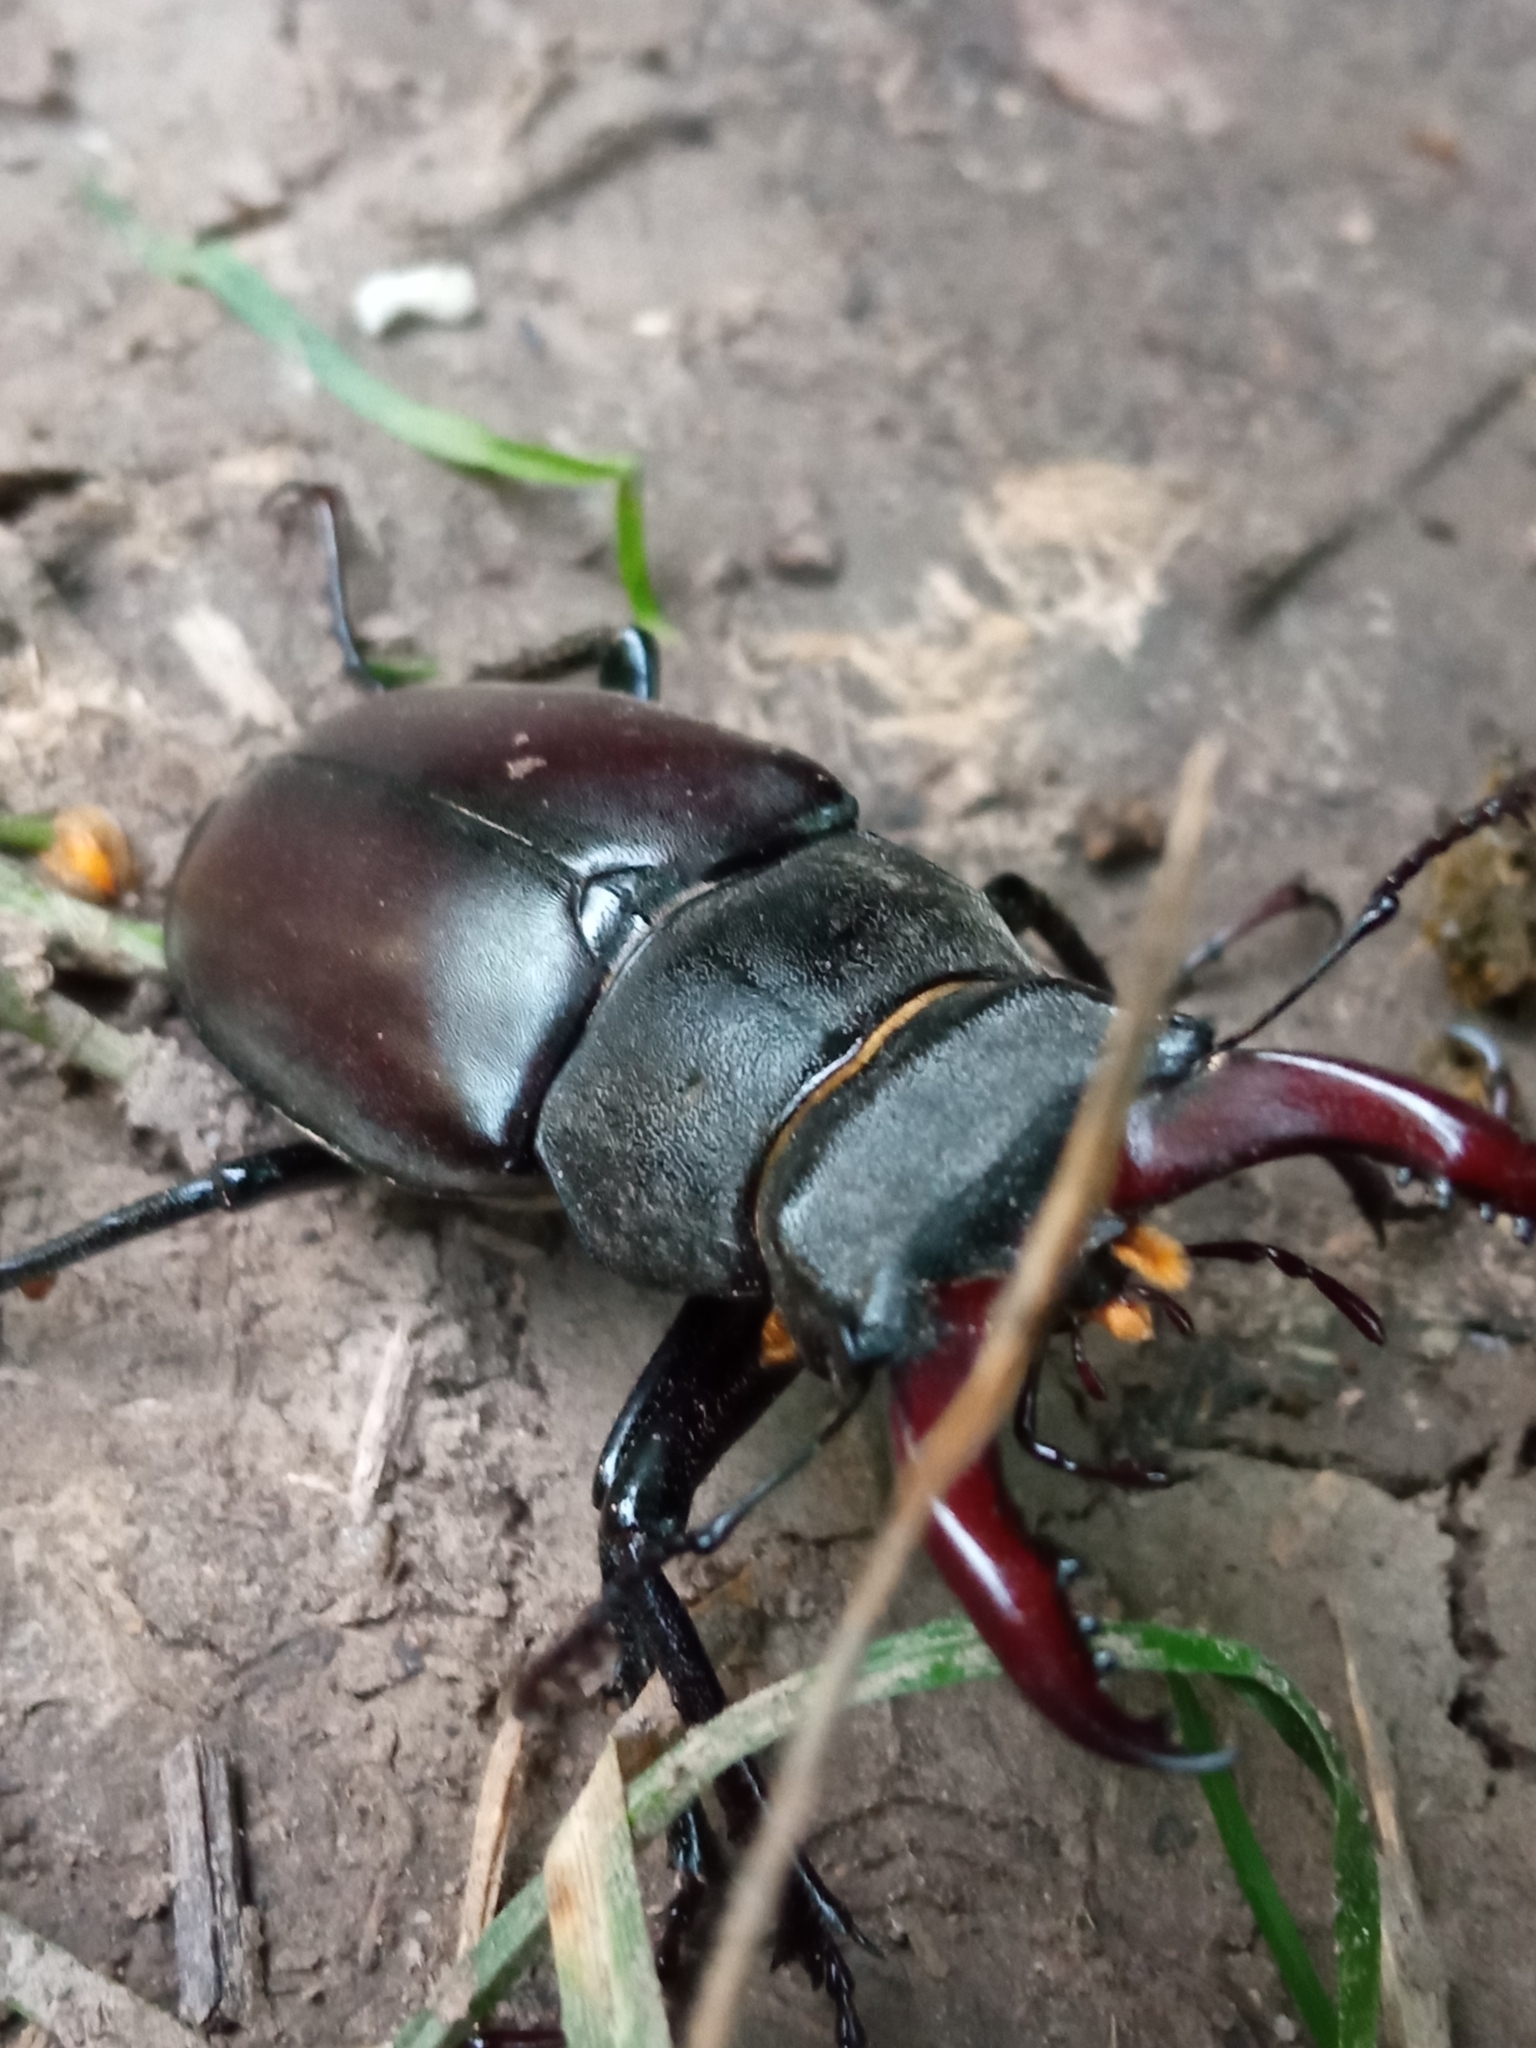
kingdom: Animalia
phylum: Arthropoda
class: Insecta
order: Coleoptera
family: Lucanidae
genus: Lucanus
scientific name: Lucanus cervus
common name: Stag beetle
